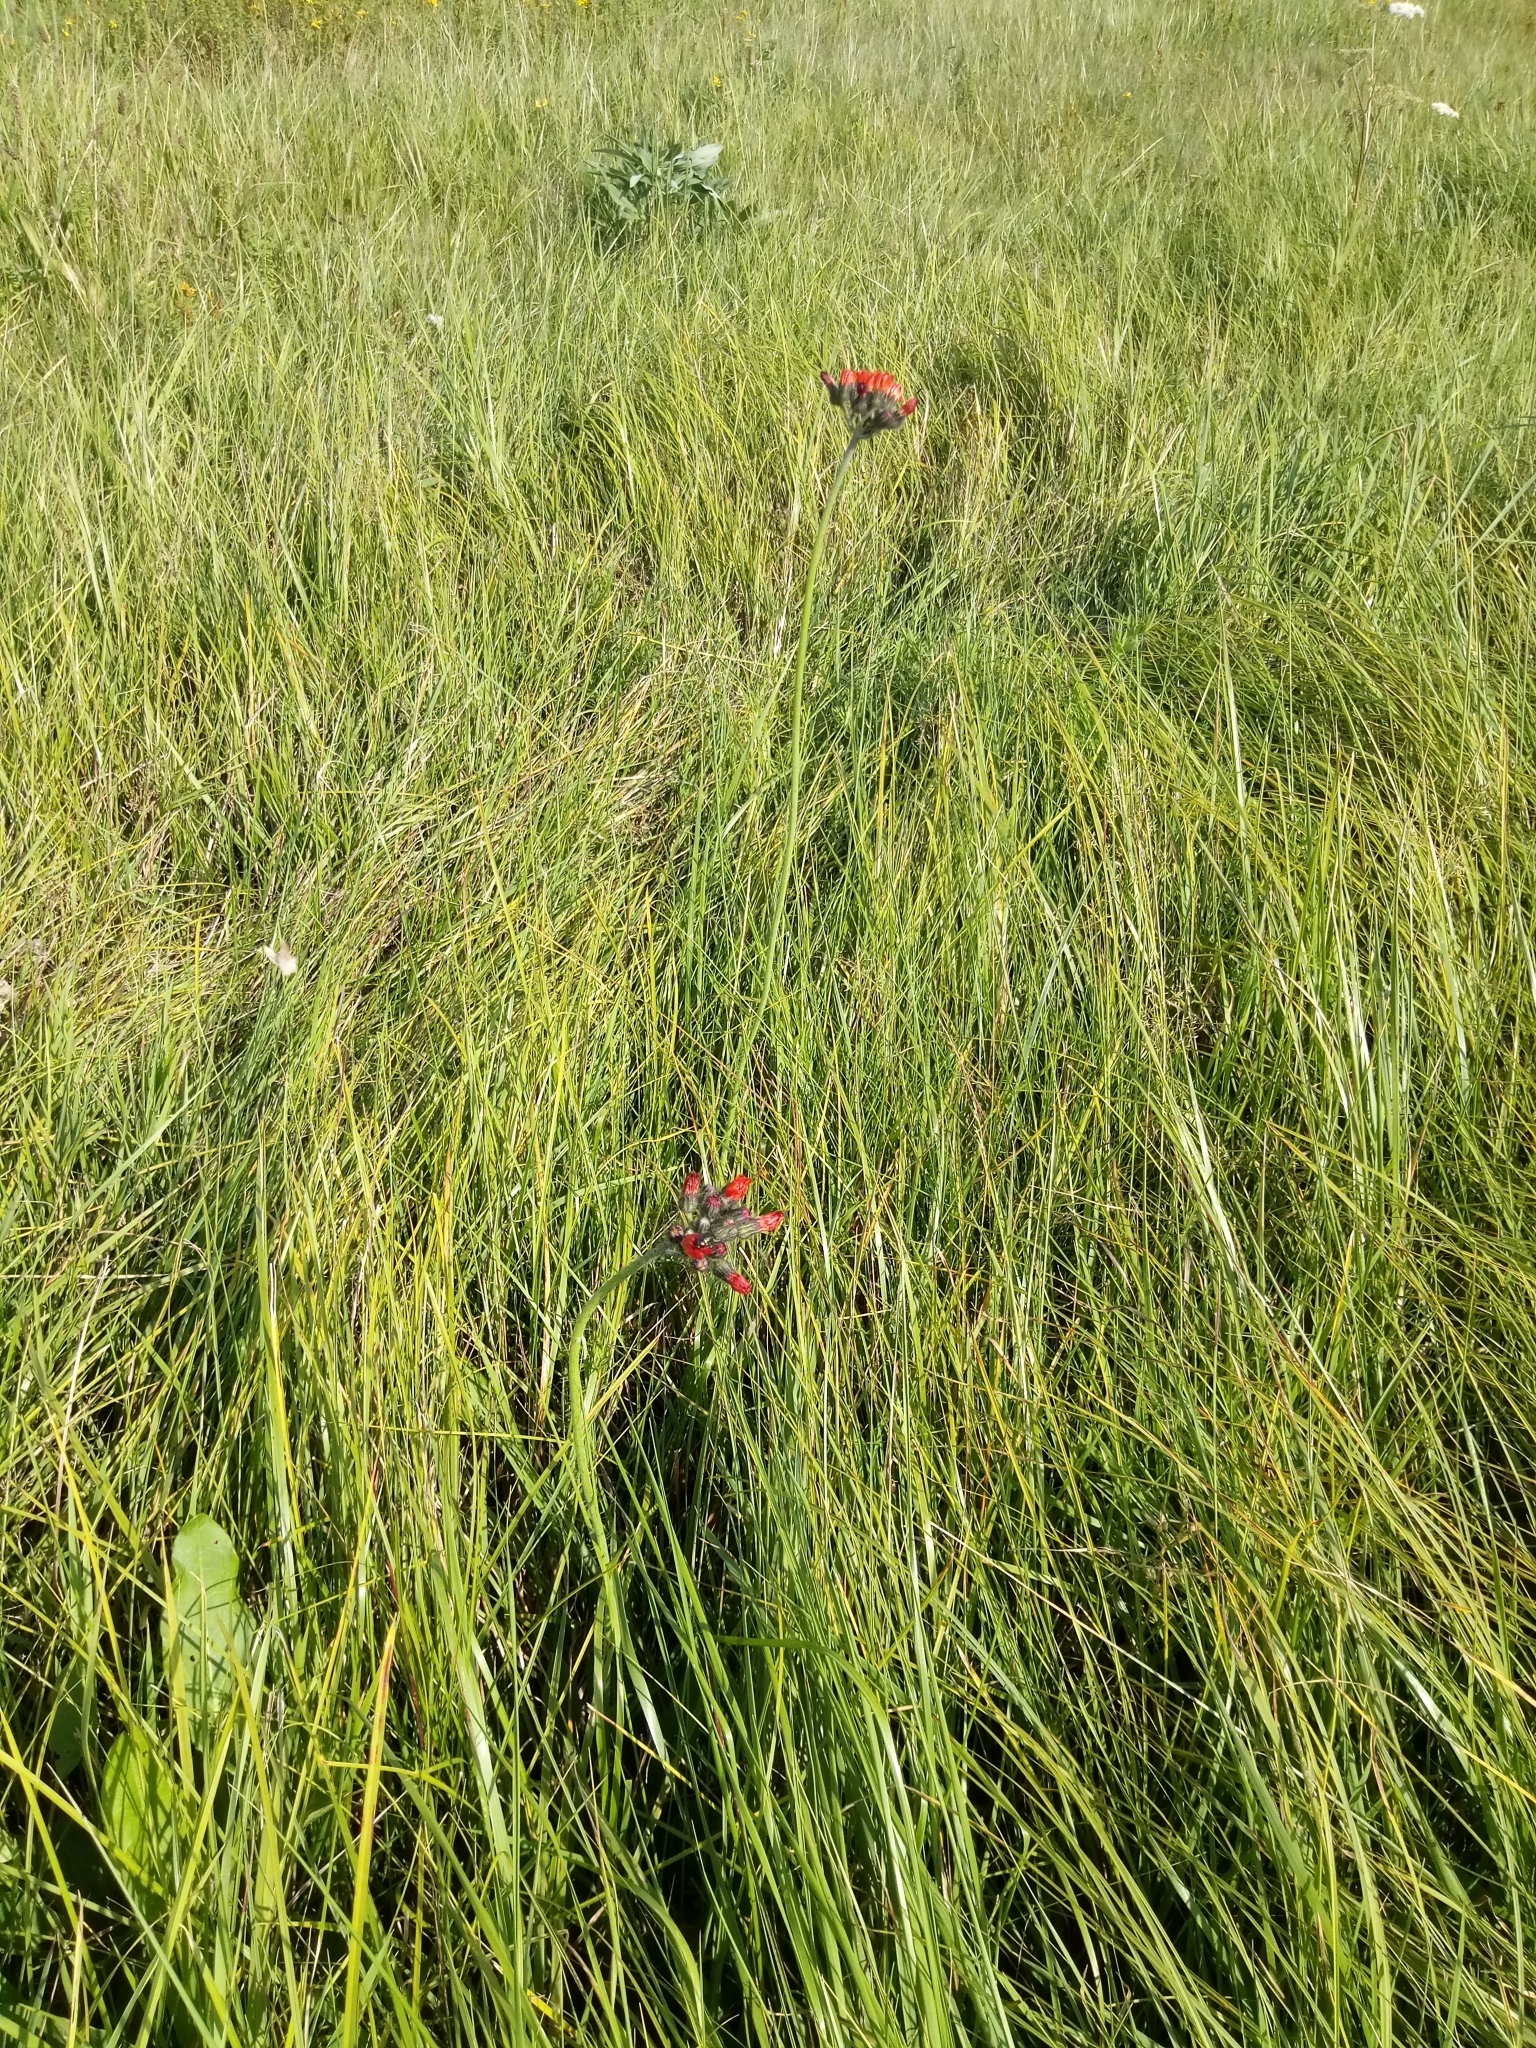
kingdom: Plantae
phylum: Tracheophyta
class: Magnoliopsida
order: Asterales
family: Asteraceae
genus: Pilosella
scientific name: Pilosella aurantiaca
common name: Fox-and-cubs
